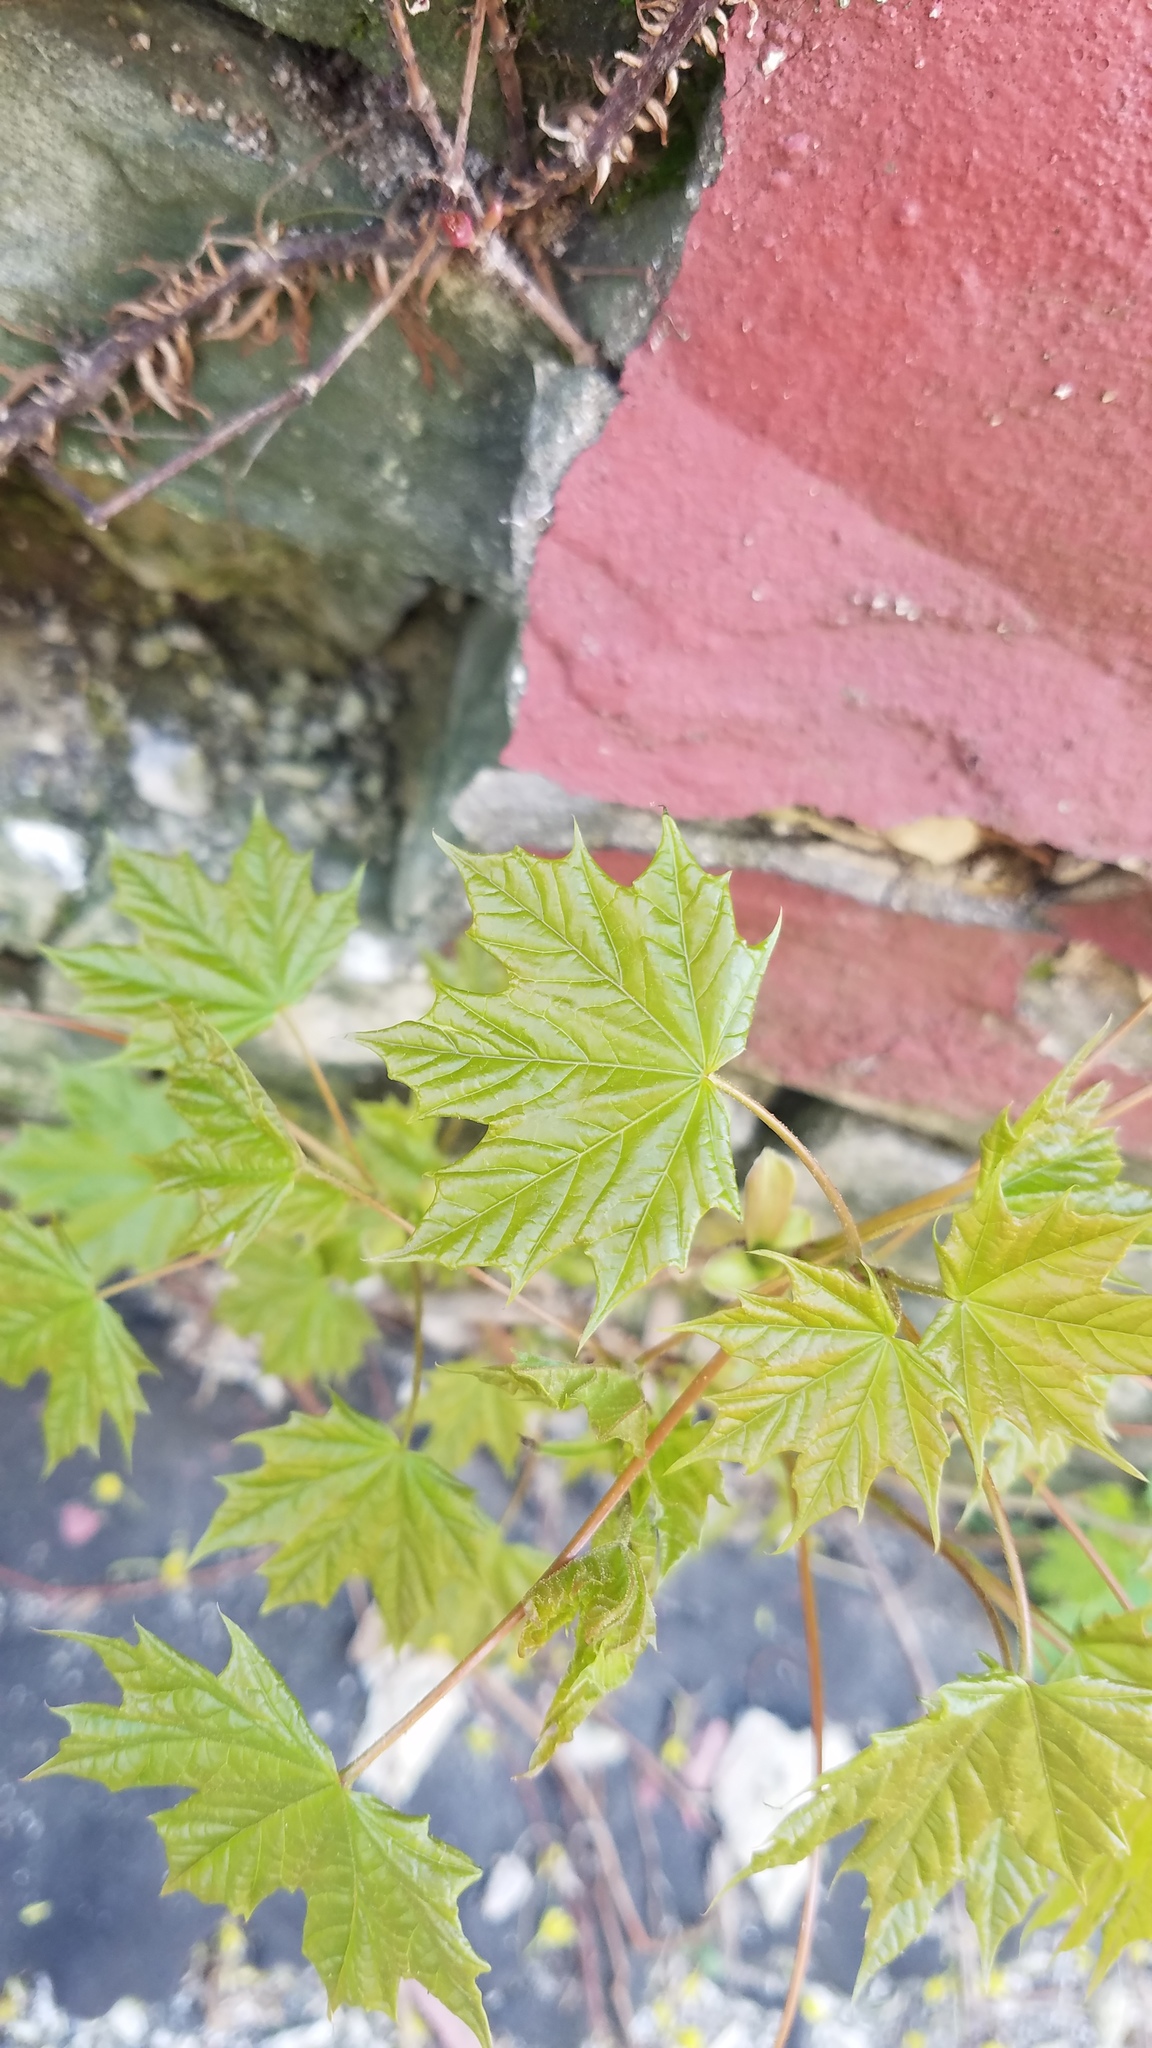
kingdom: Plantae
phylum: Tracheophyta
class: Magnoliopsida
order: Sapindales
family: Sapindaceae
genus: Acer
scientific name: Acer platanoides
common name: Norway maple
